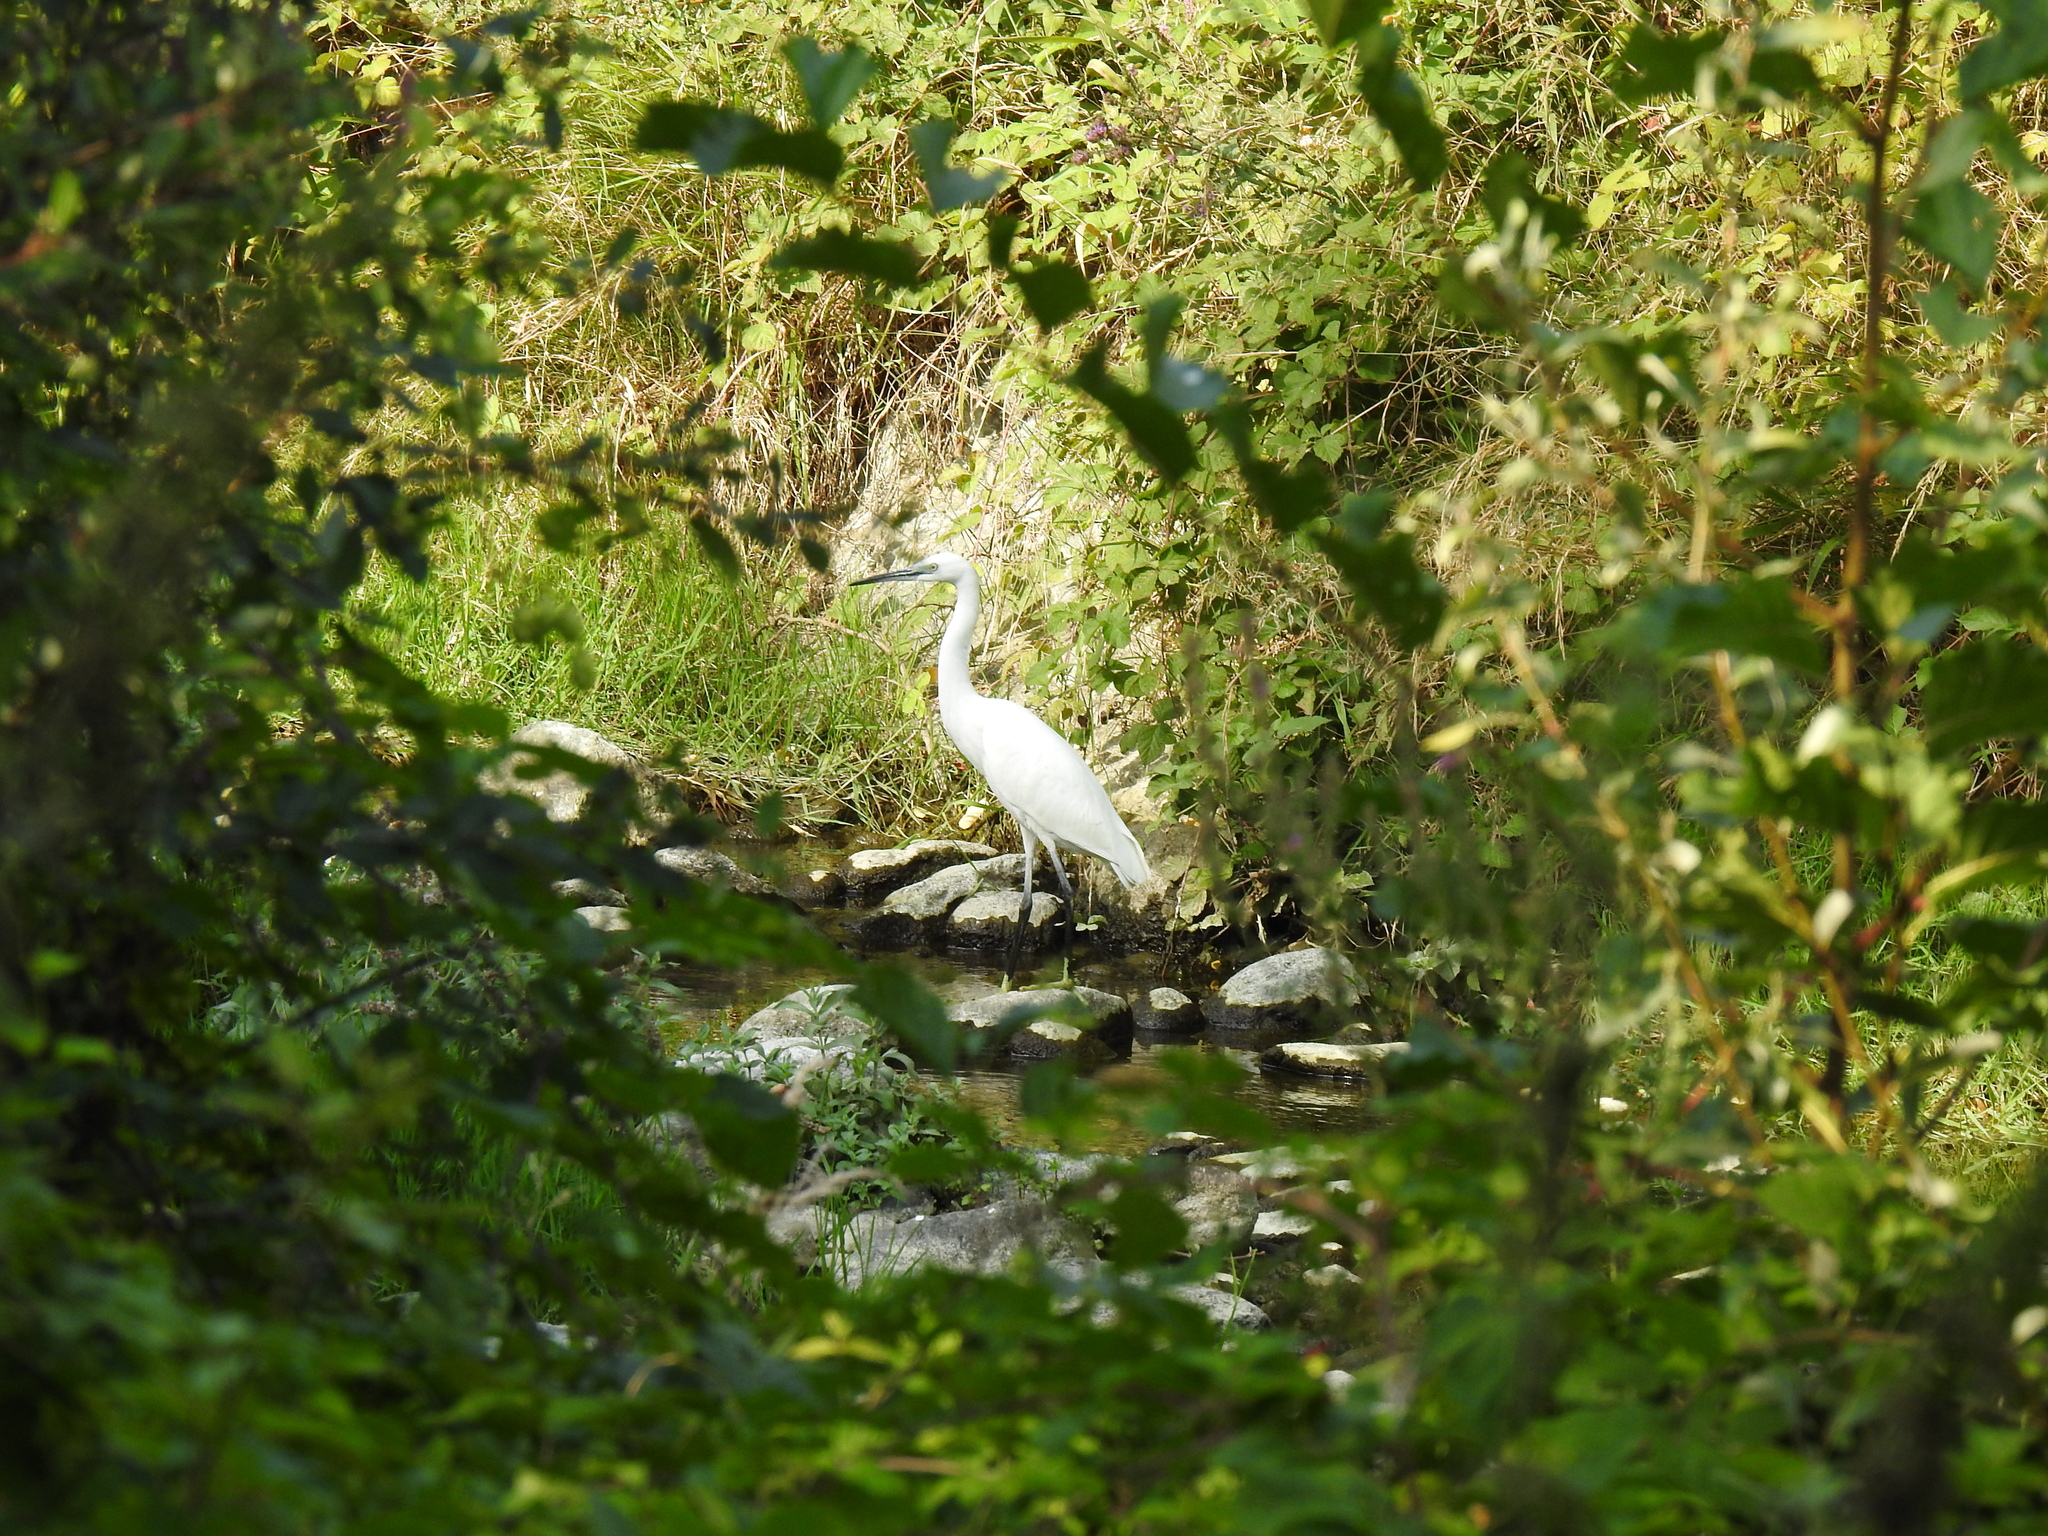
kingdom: Animalia
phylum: Chordata
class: Aves
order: Pelecaniformes
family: Ardeidae
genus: Egretta
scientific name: Egretta garzetta
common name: Little egret
